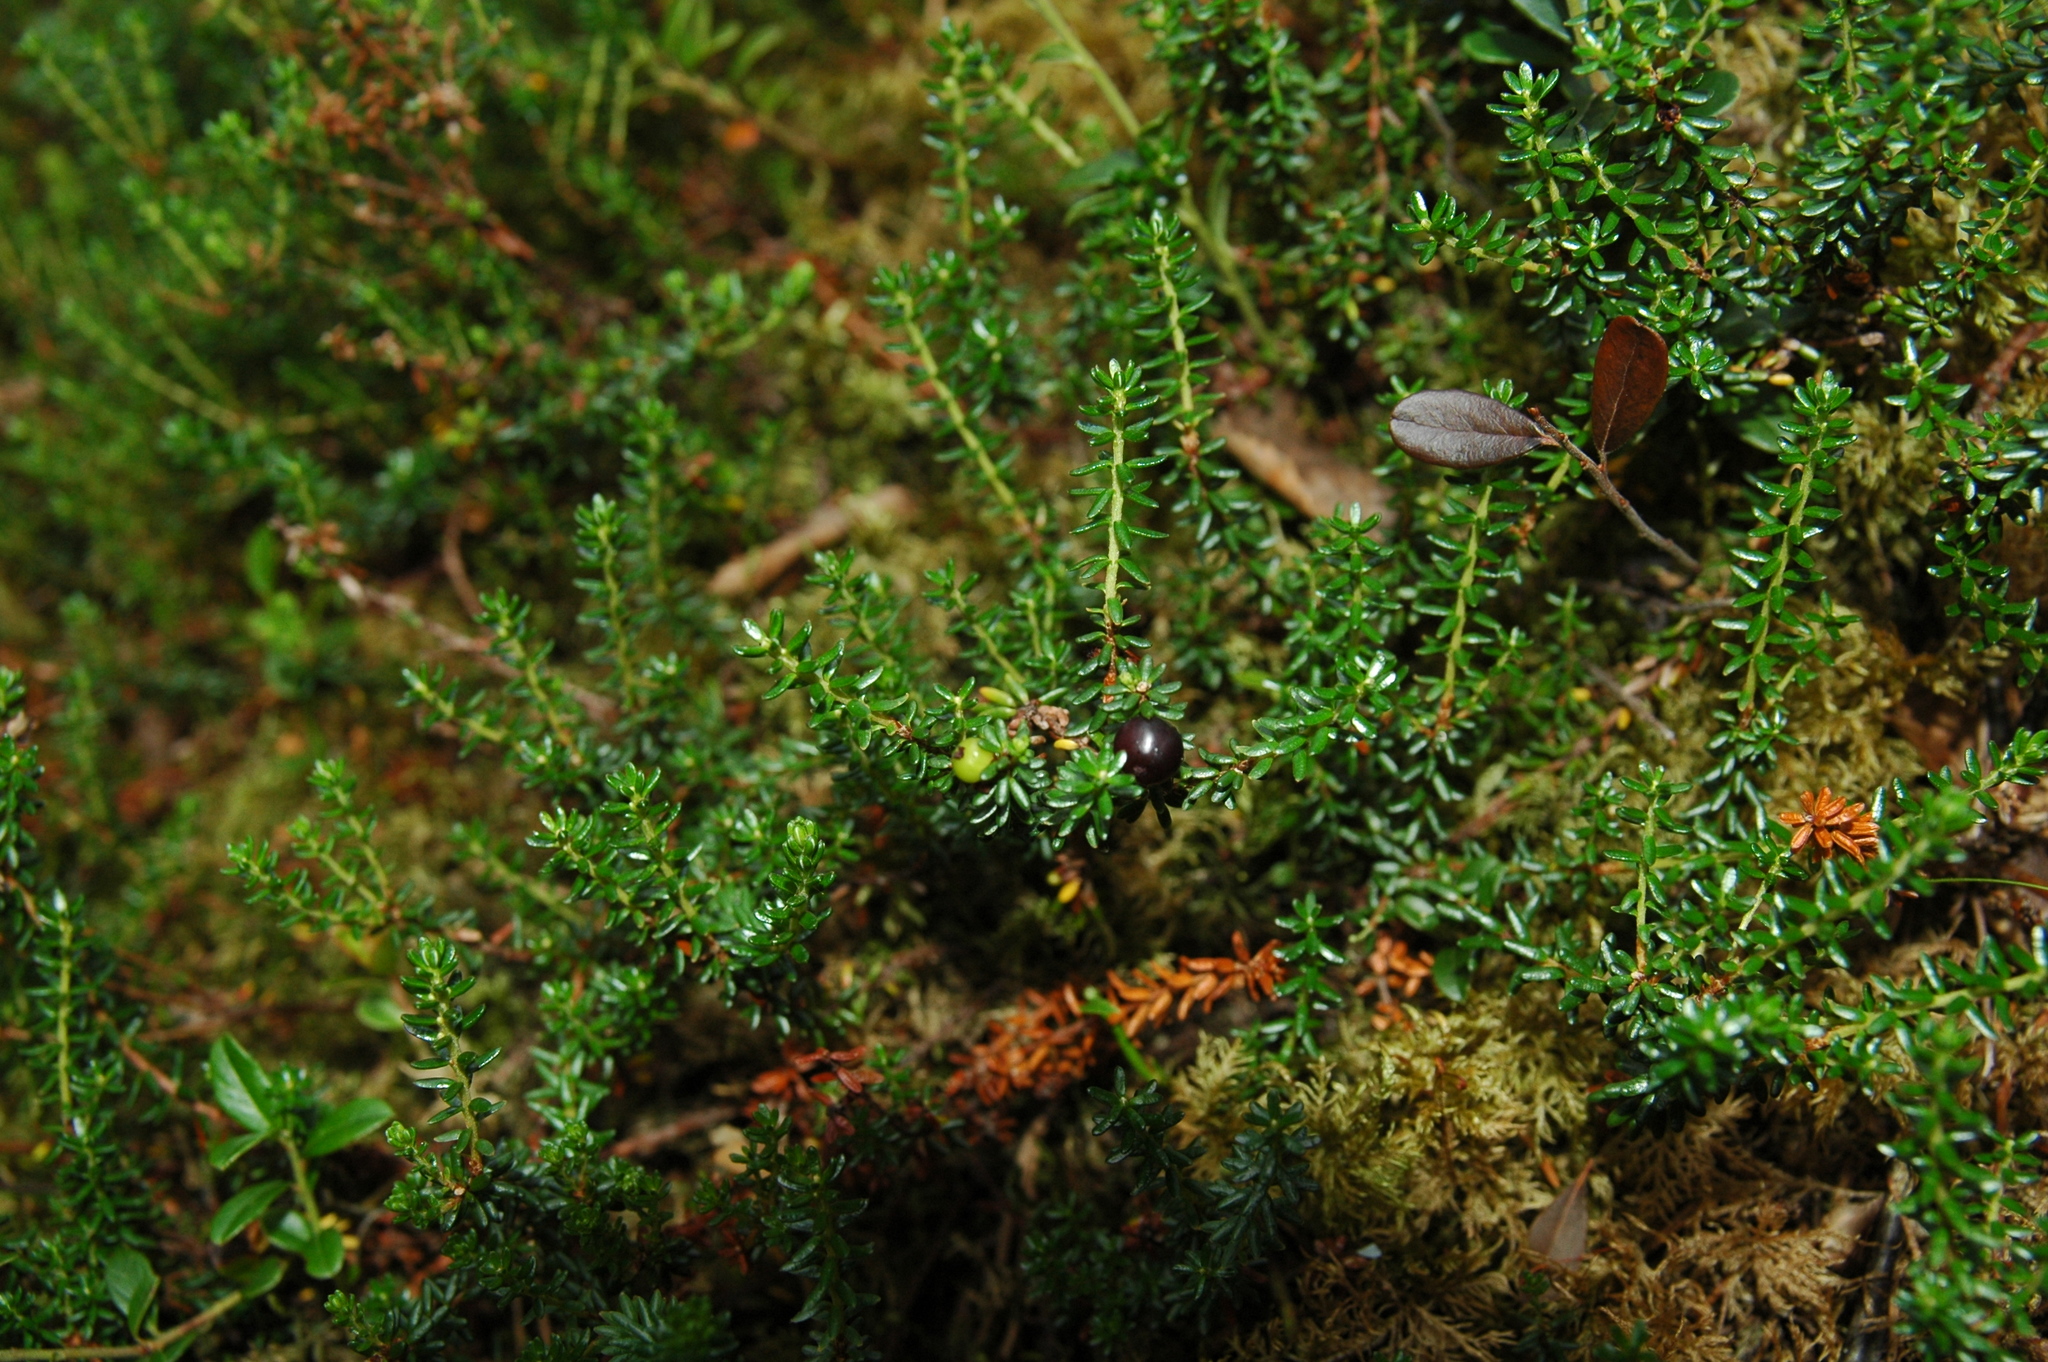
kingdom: Plantae
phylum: Tracheophyta
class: Magnoliopsida
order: Ericales
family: Ericaceae
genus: Empetrum
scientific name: Empetrum nigrum
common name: Black crowberry
